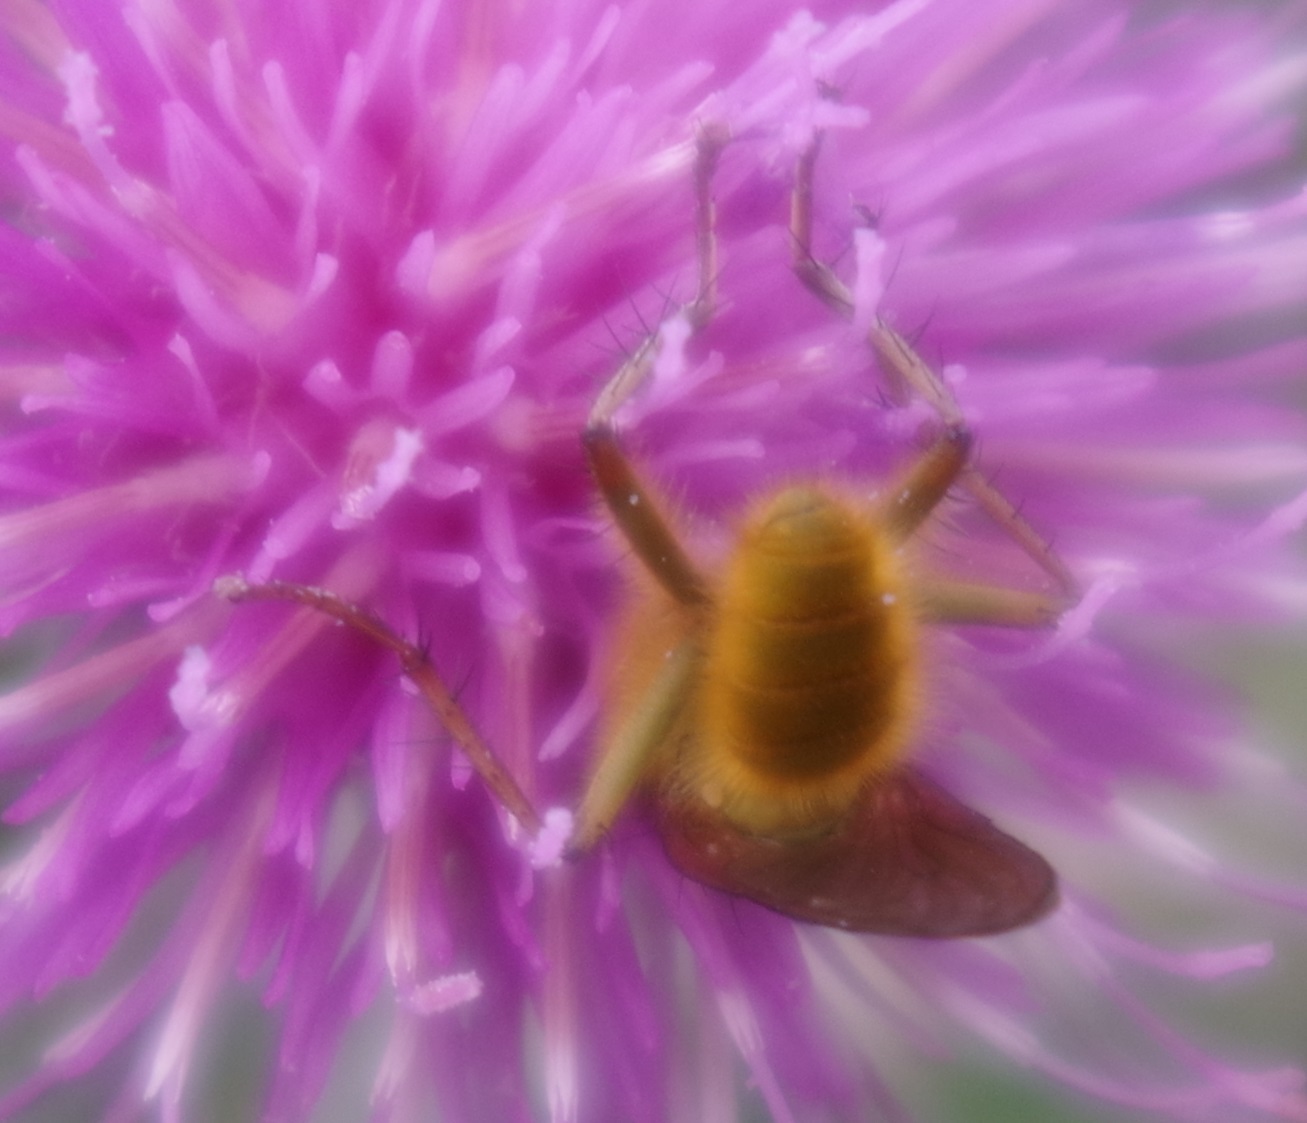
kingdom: Animalia
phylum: Arthropoda
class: Insecta
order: Diptera
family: Scathophagidae
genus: Scathophaga
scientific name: Scathophaga stercoraria
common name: Yellow dung fly
